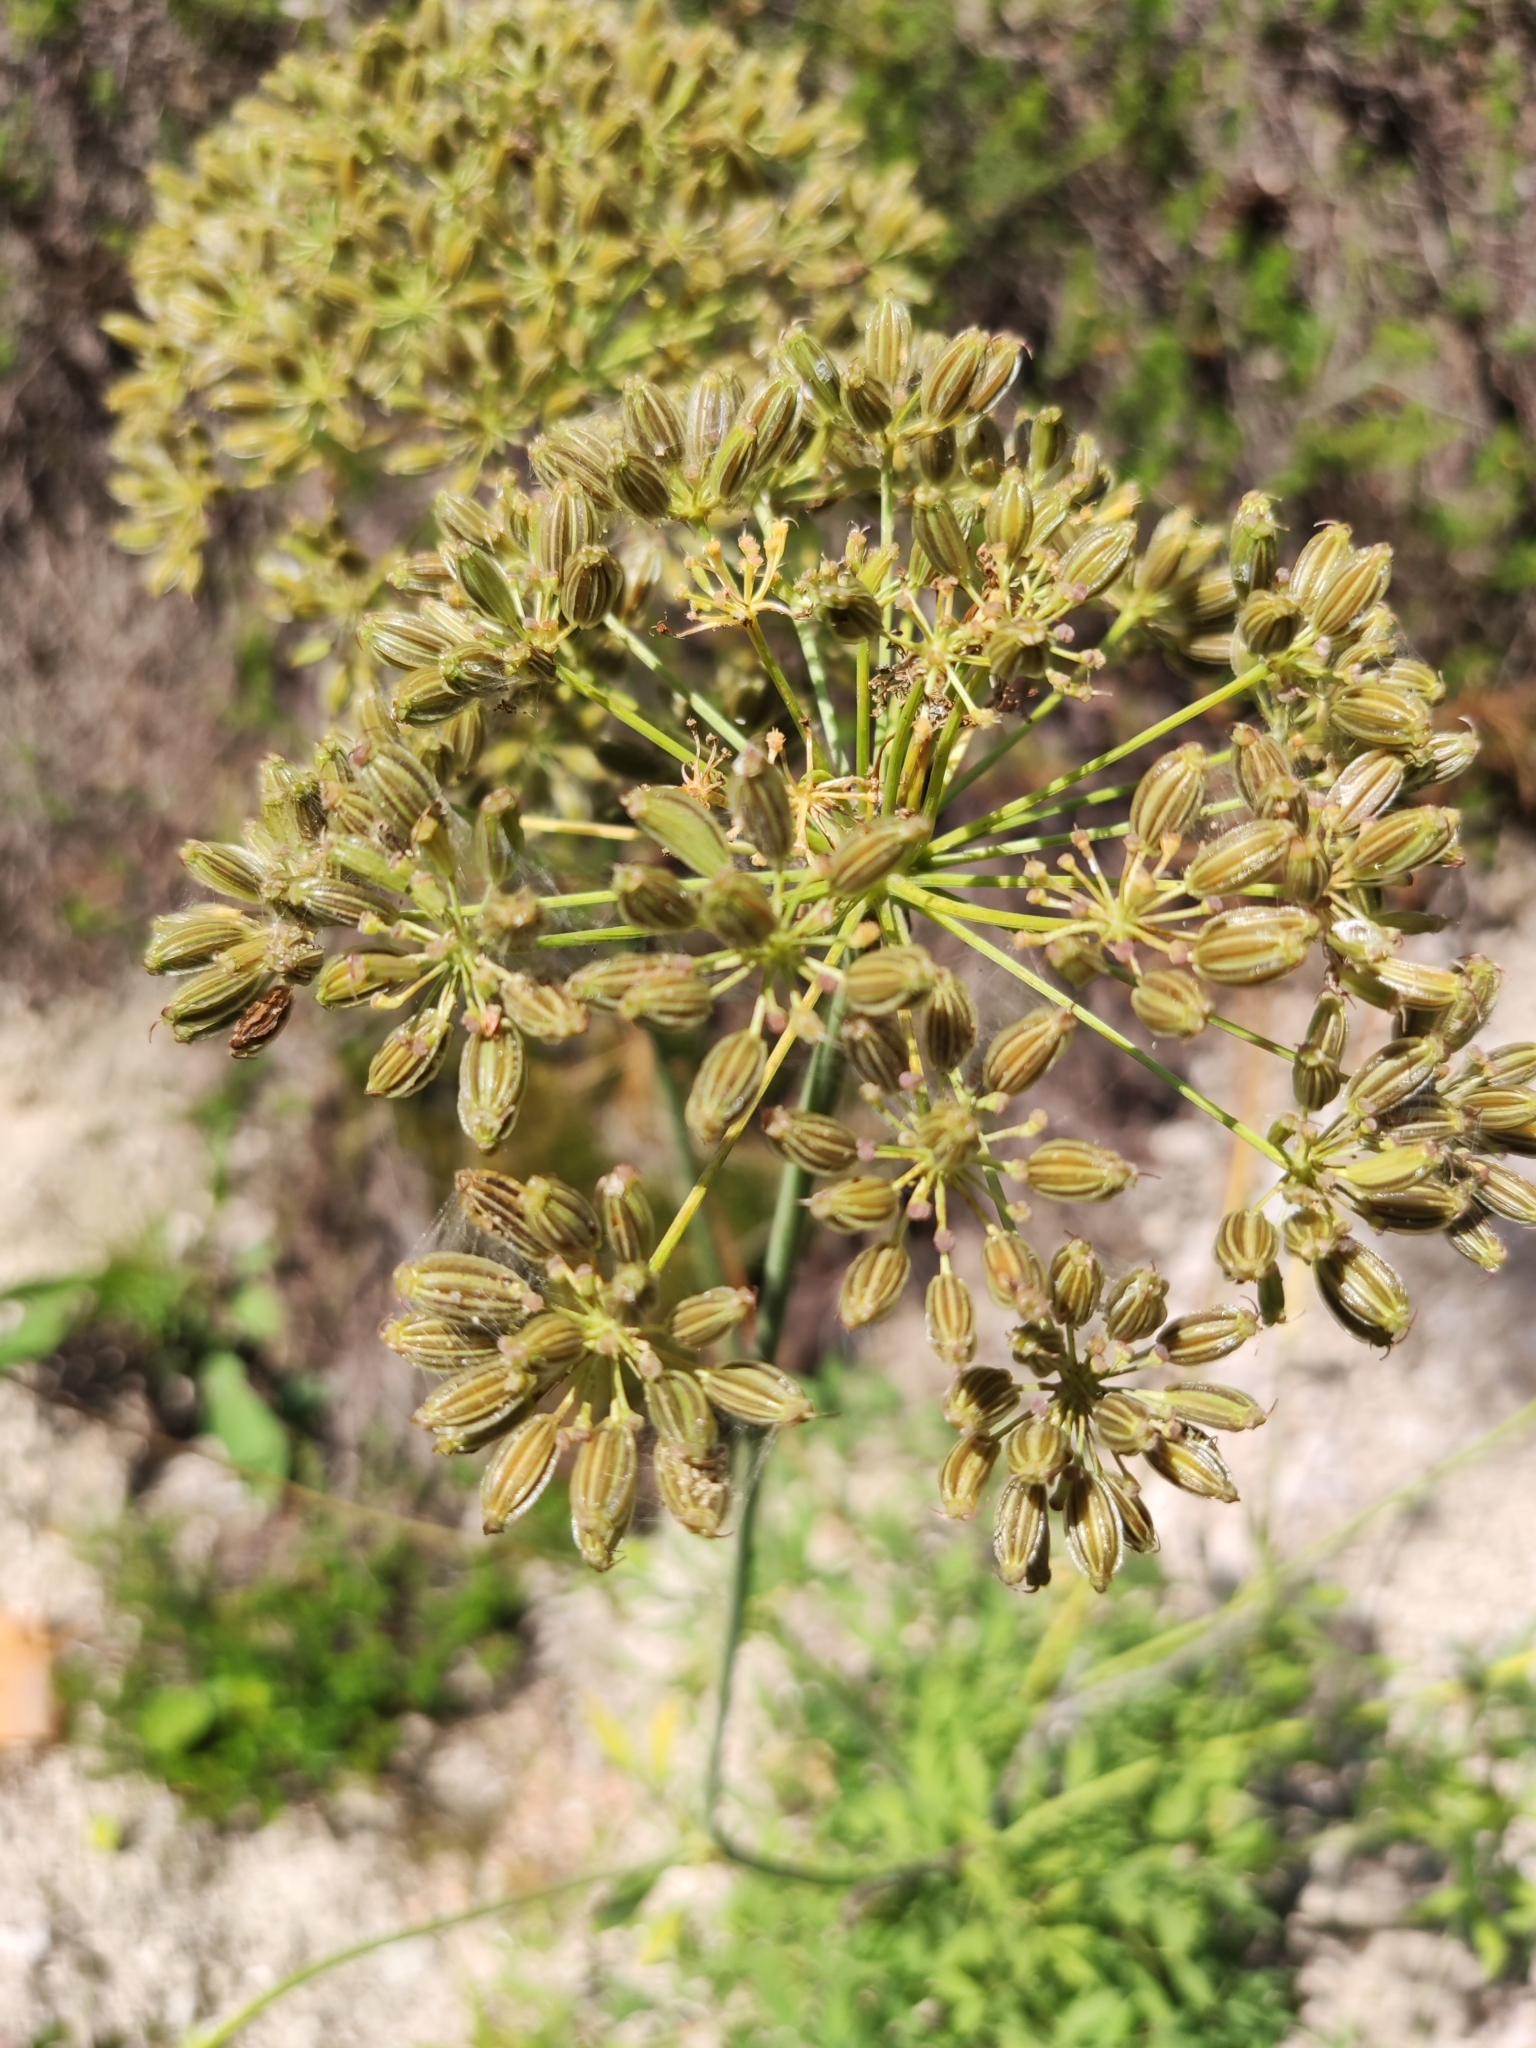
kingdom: Plantae
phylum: Tracheophyta
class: Magnoliopsida
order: Apiales
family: Apiaceae
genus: Siler
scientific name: Siler montanum
